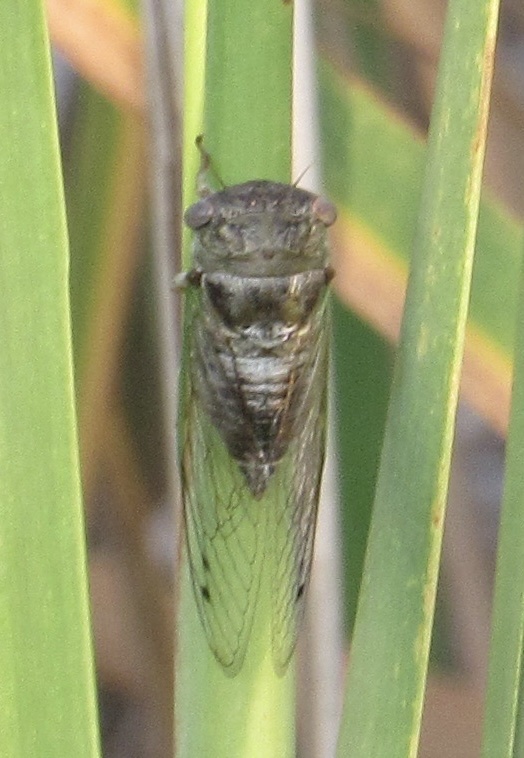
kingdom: Animalia
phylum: Arthropoda
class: Insecta
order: Hemiptera
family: Cicadidae
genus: Neotibicen
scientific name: Neotibicen aurifer
